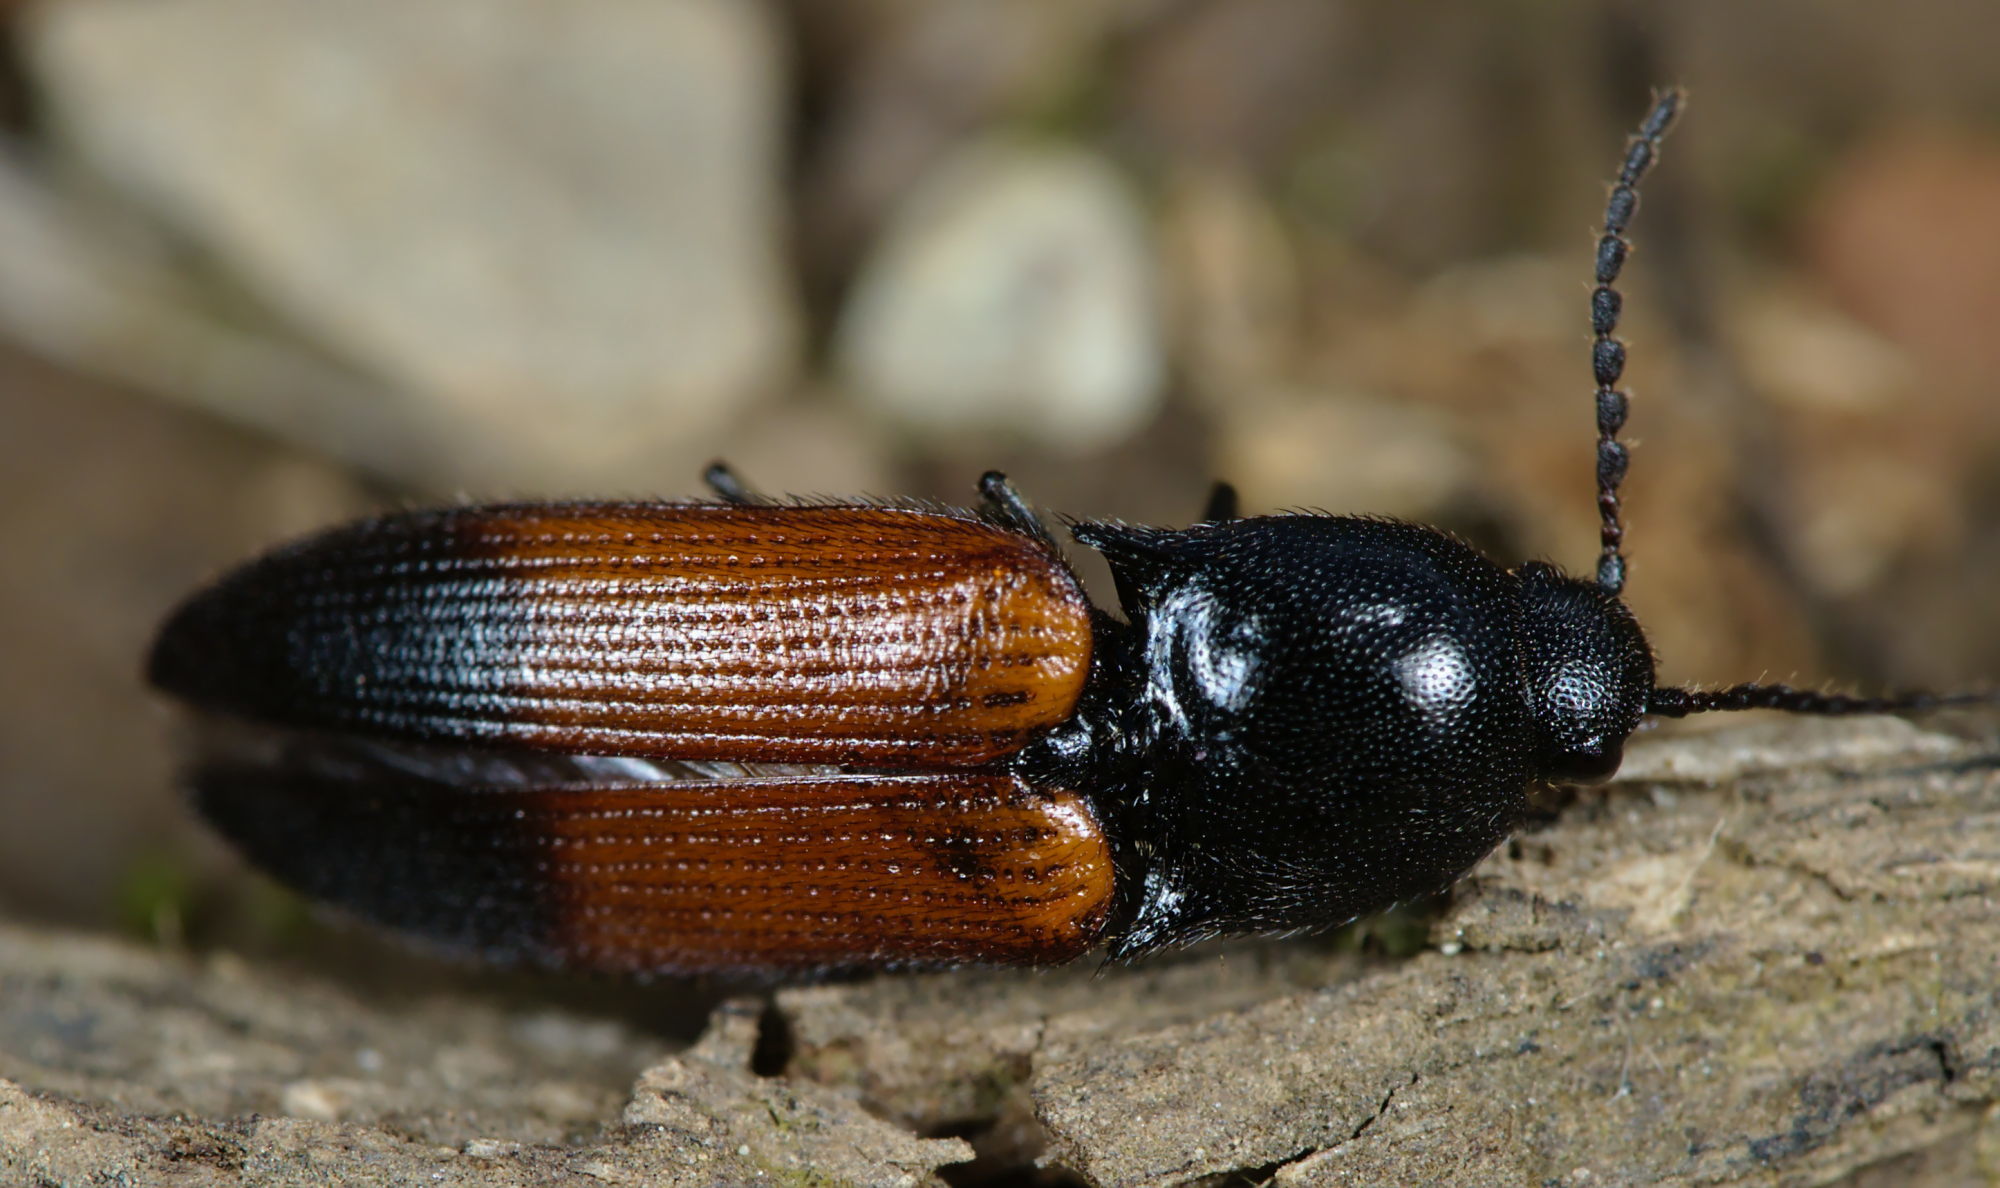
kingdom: Animalia
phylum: Arthropoda
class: Insecta
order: Coleoptera
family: Elateridae
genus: Ampedus
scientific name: Ampedus balteatus
